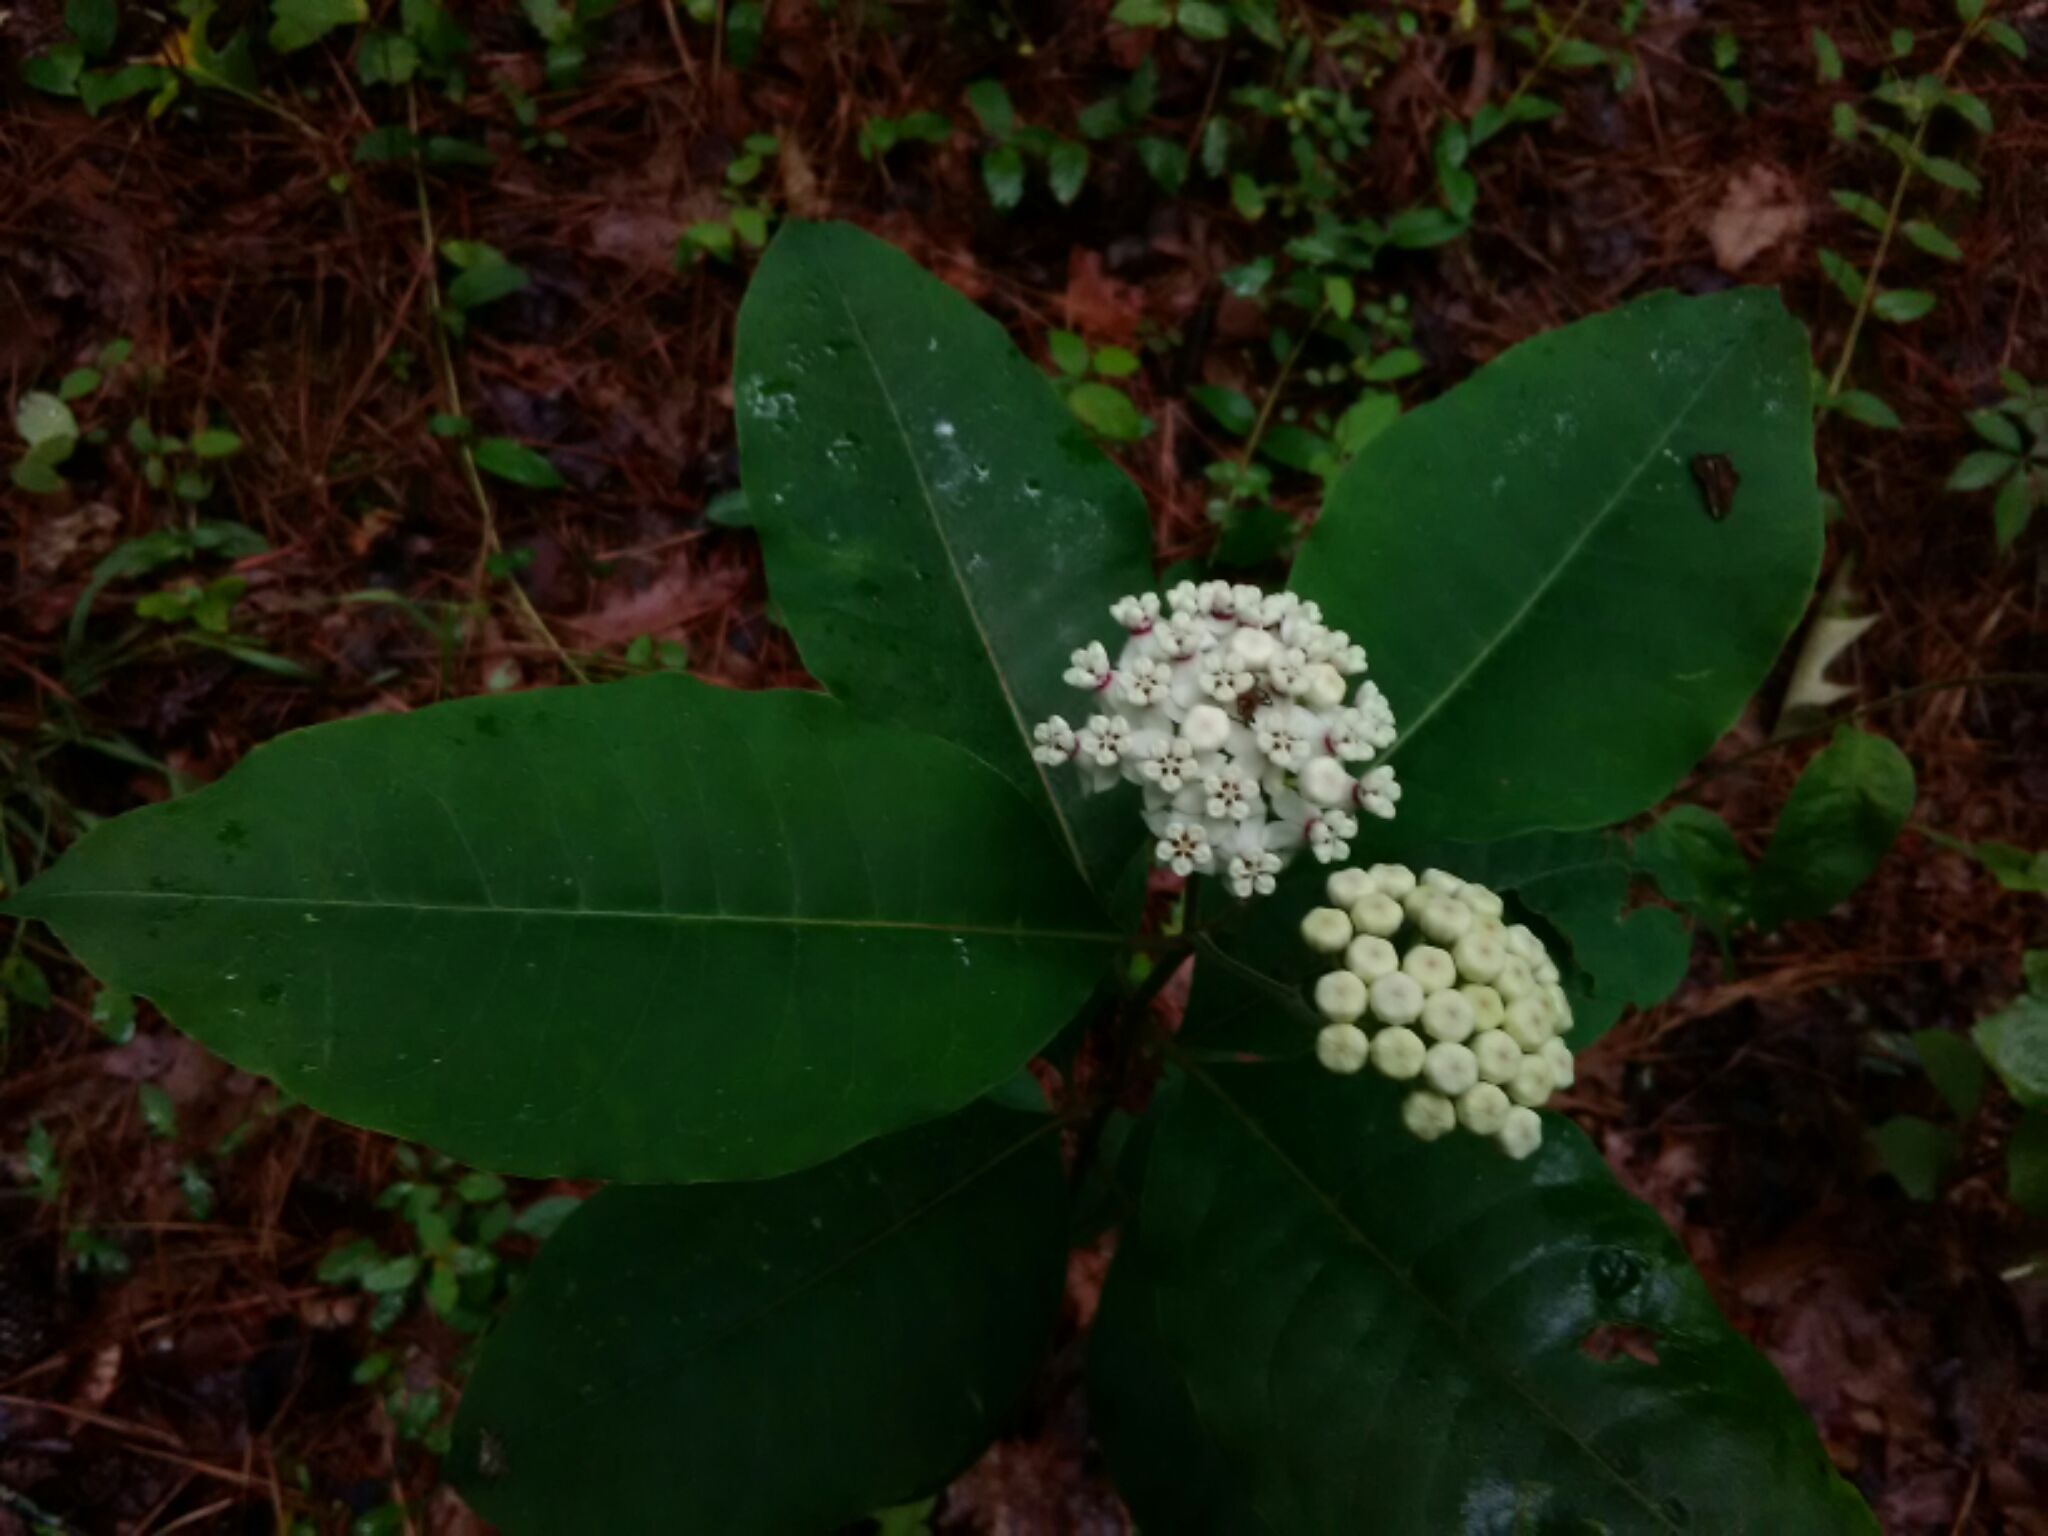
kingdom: Plantae
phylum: Tracheophyta
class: Magnoliopsida
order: Gentianales
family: Apocynaceae
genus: Asclepias
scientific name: Asclepias variegata
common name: Variegated milkweed
